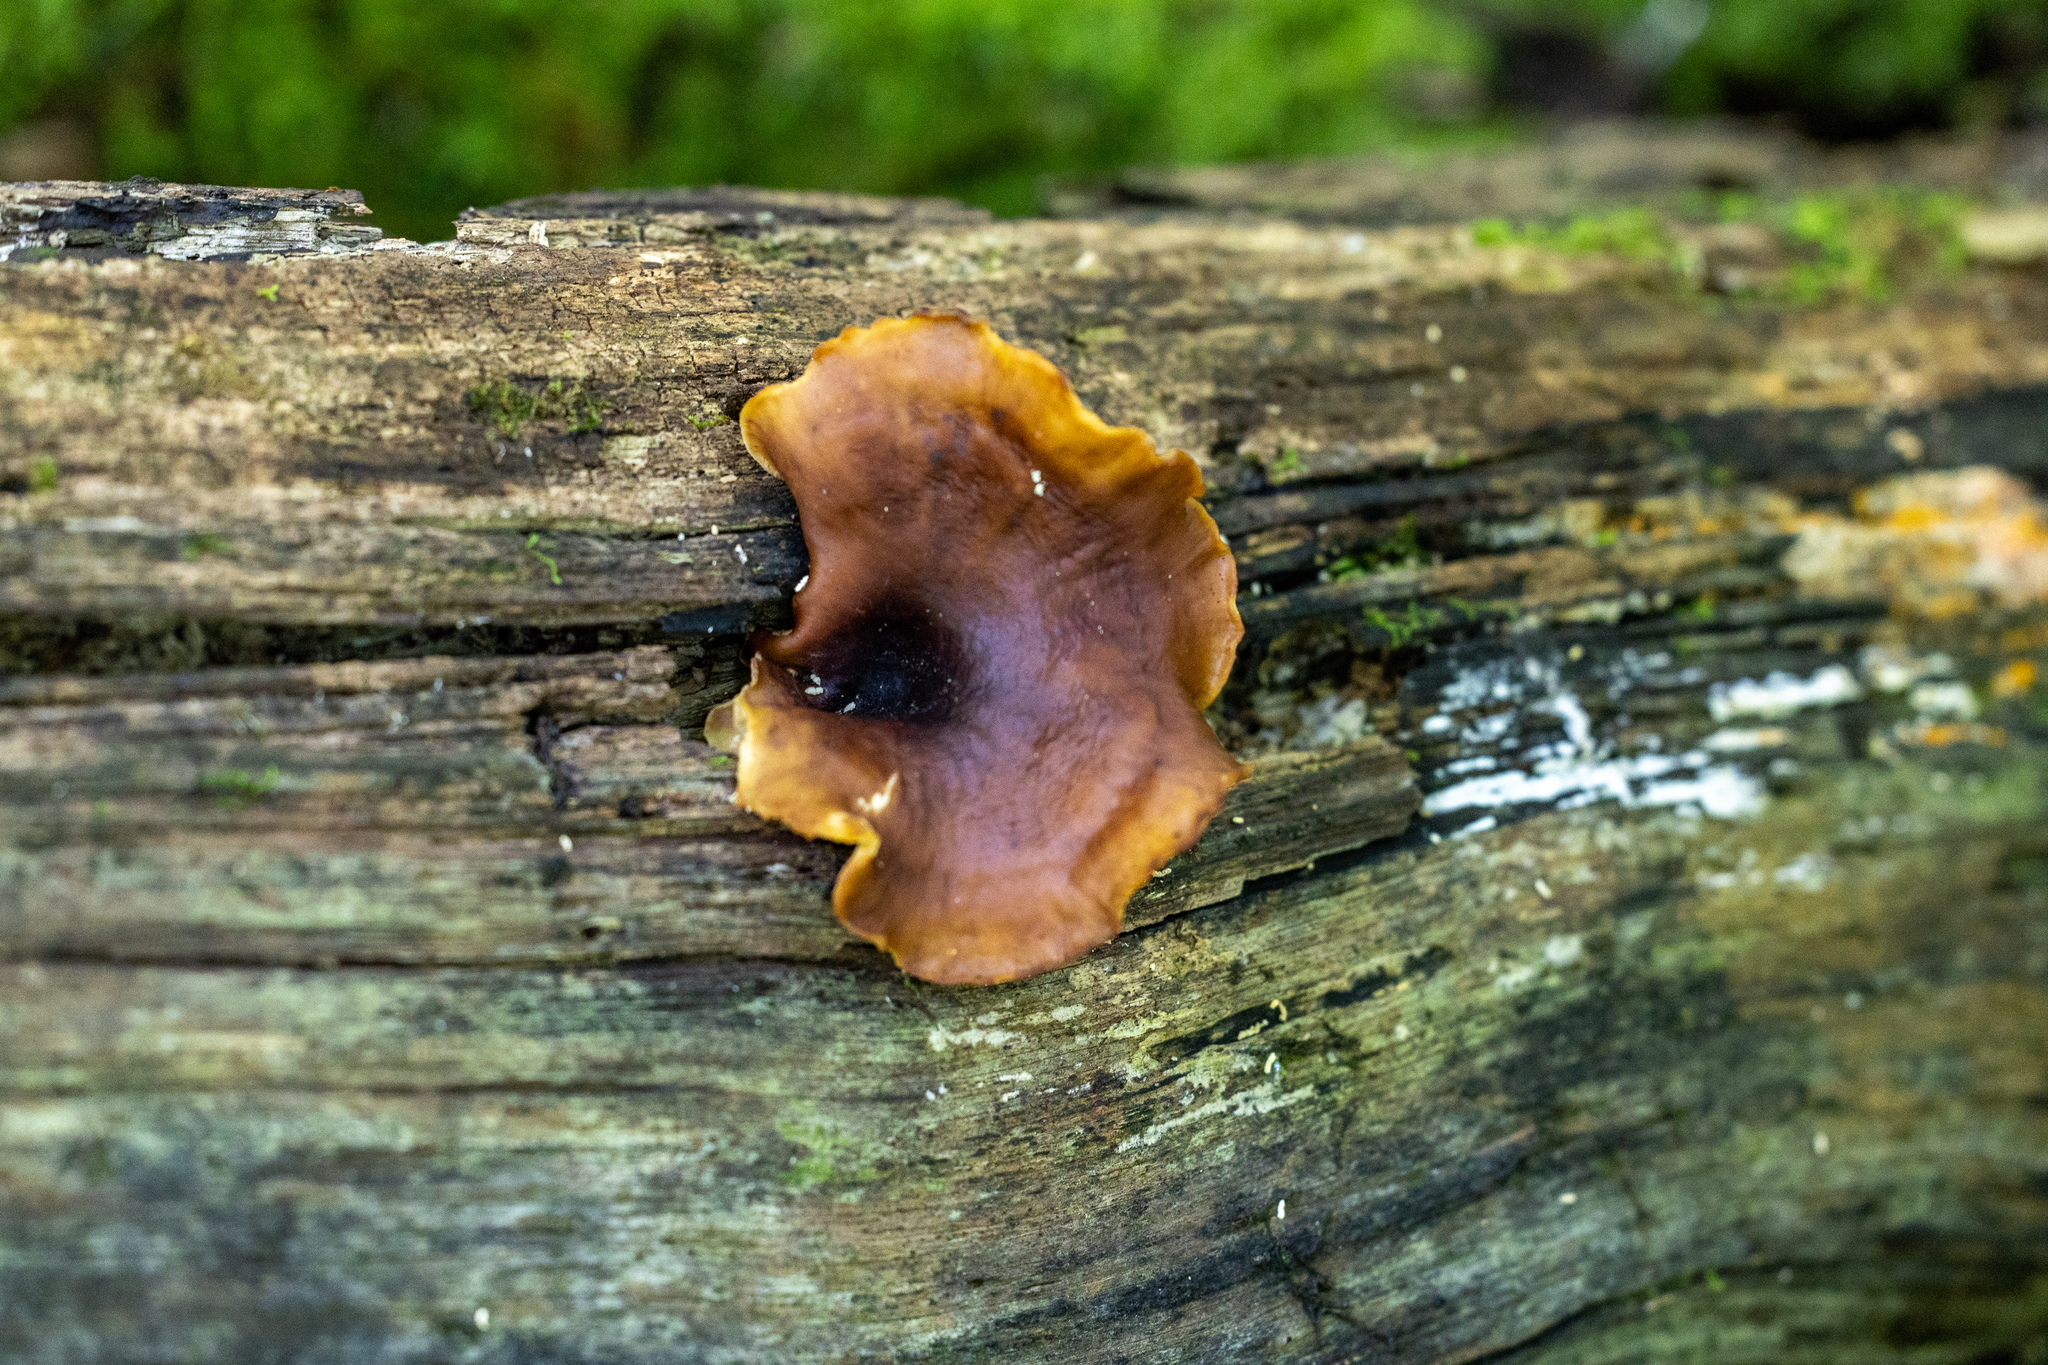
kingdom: Fungi
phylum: Basidiomycota
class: Agaricomycetes
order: Polyporales
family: Polyporaceae
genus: Picipes
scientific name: Picipes badius
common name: Bay polypore
